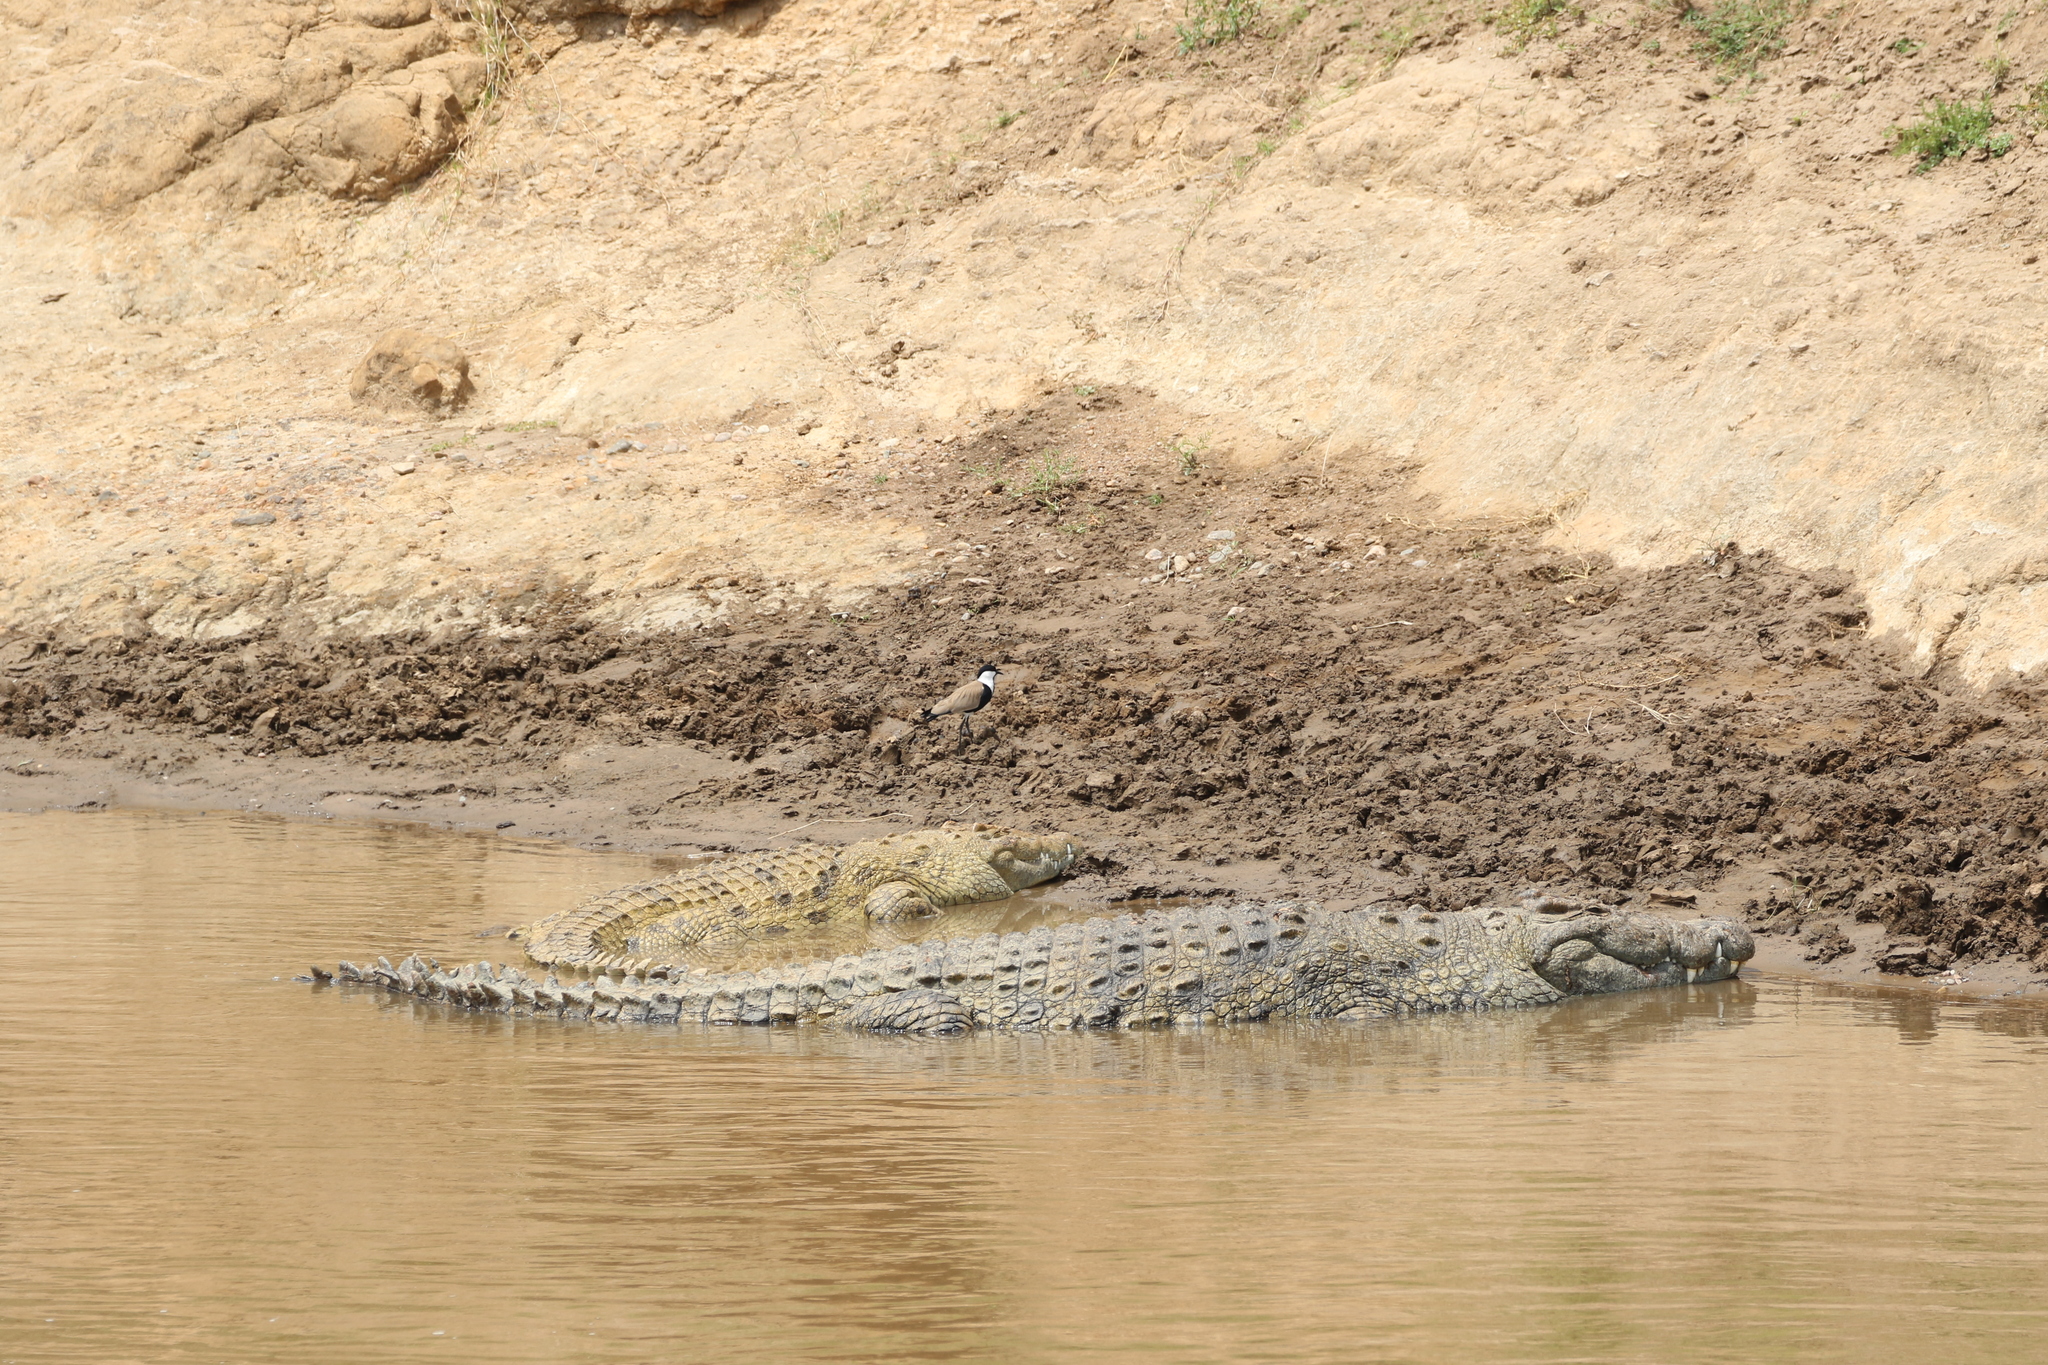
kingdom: Animalia
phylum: Chordata
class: Aves
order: Charadriiformes
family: Charadriidae
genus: Vanellus
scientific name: Vanellus spinosus
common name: Spur-winged lapwing
